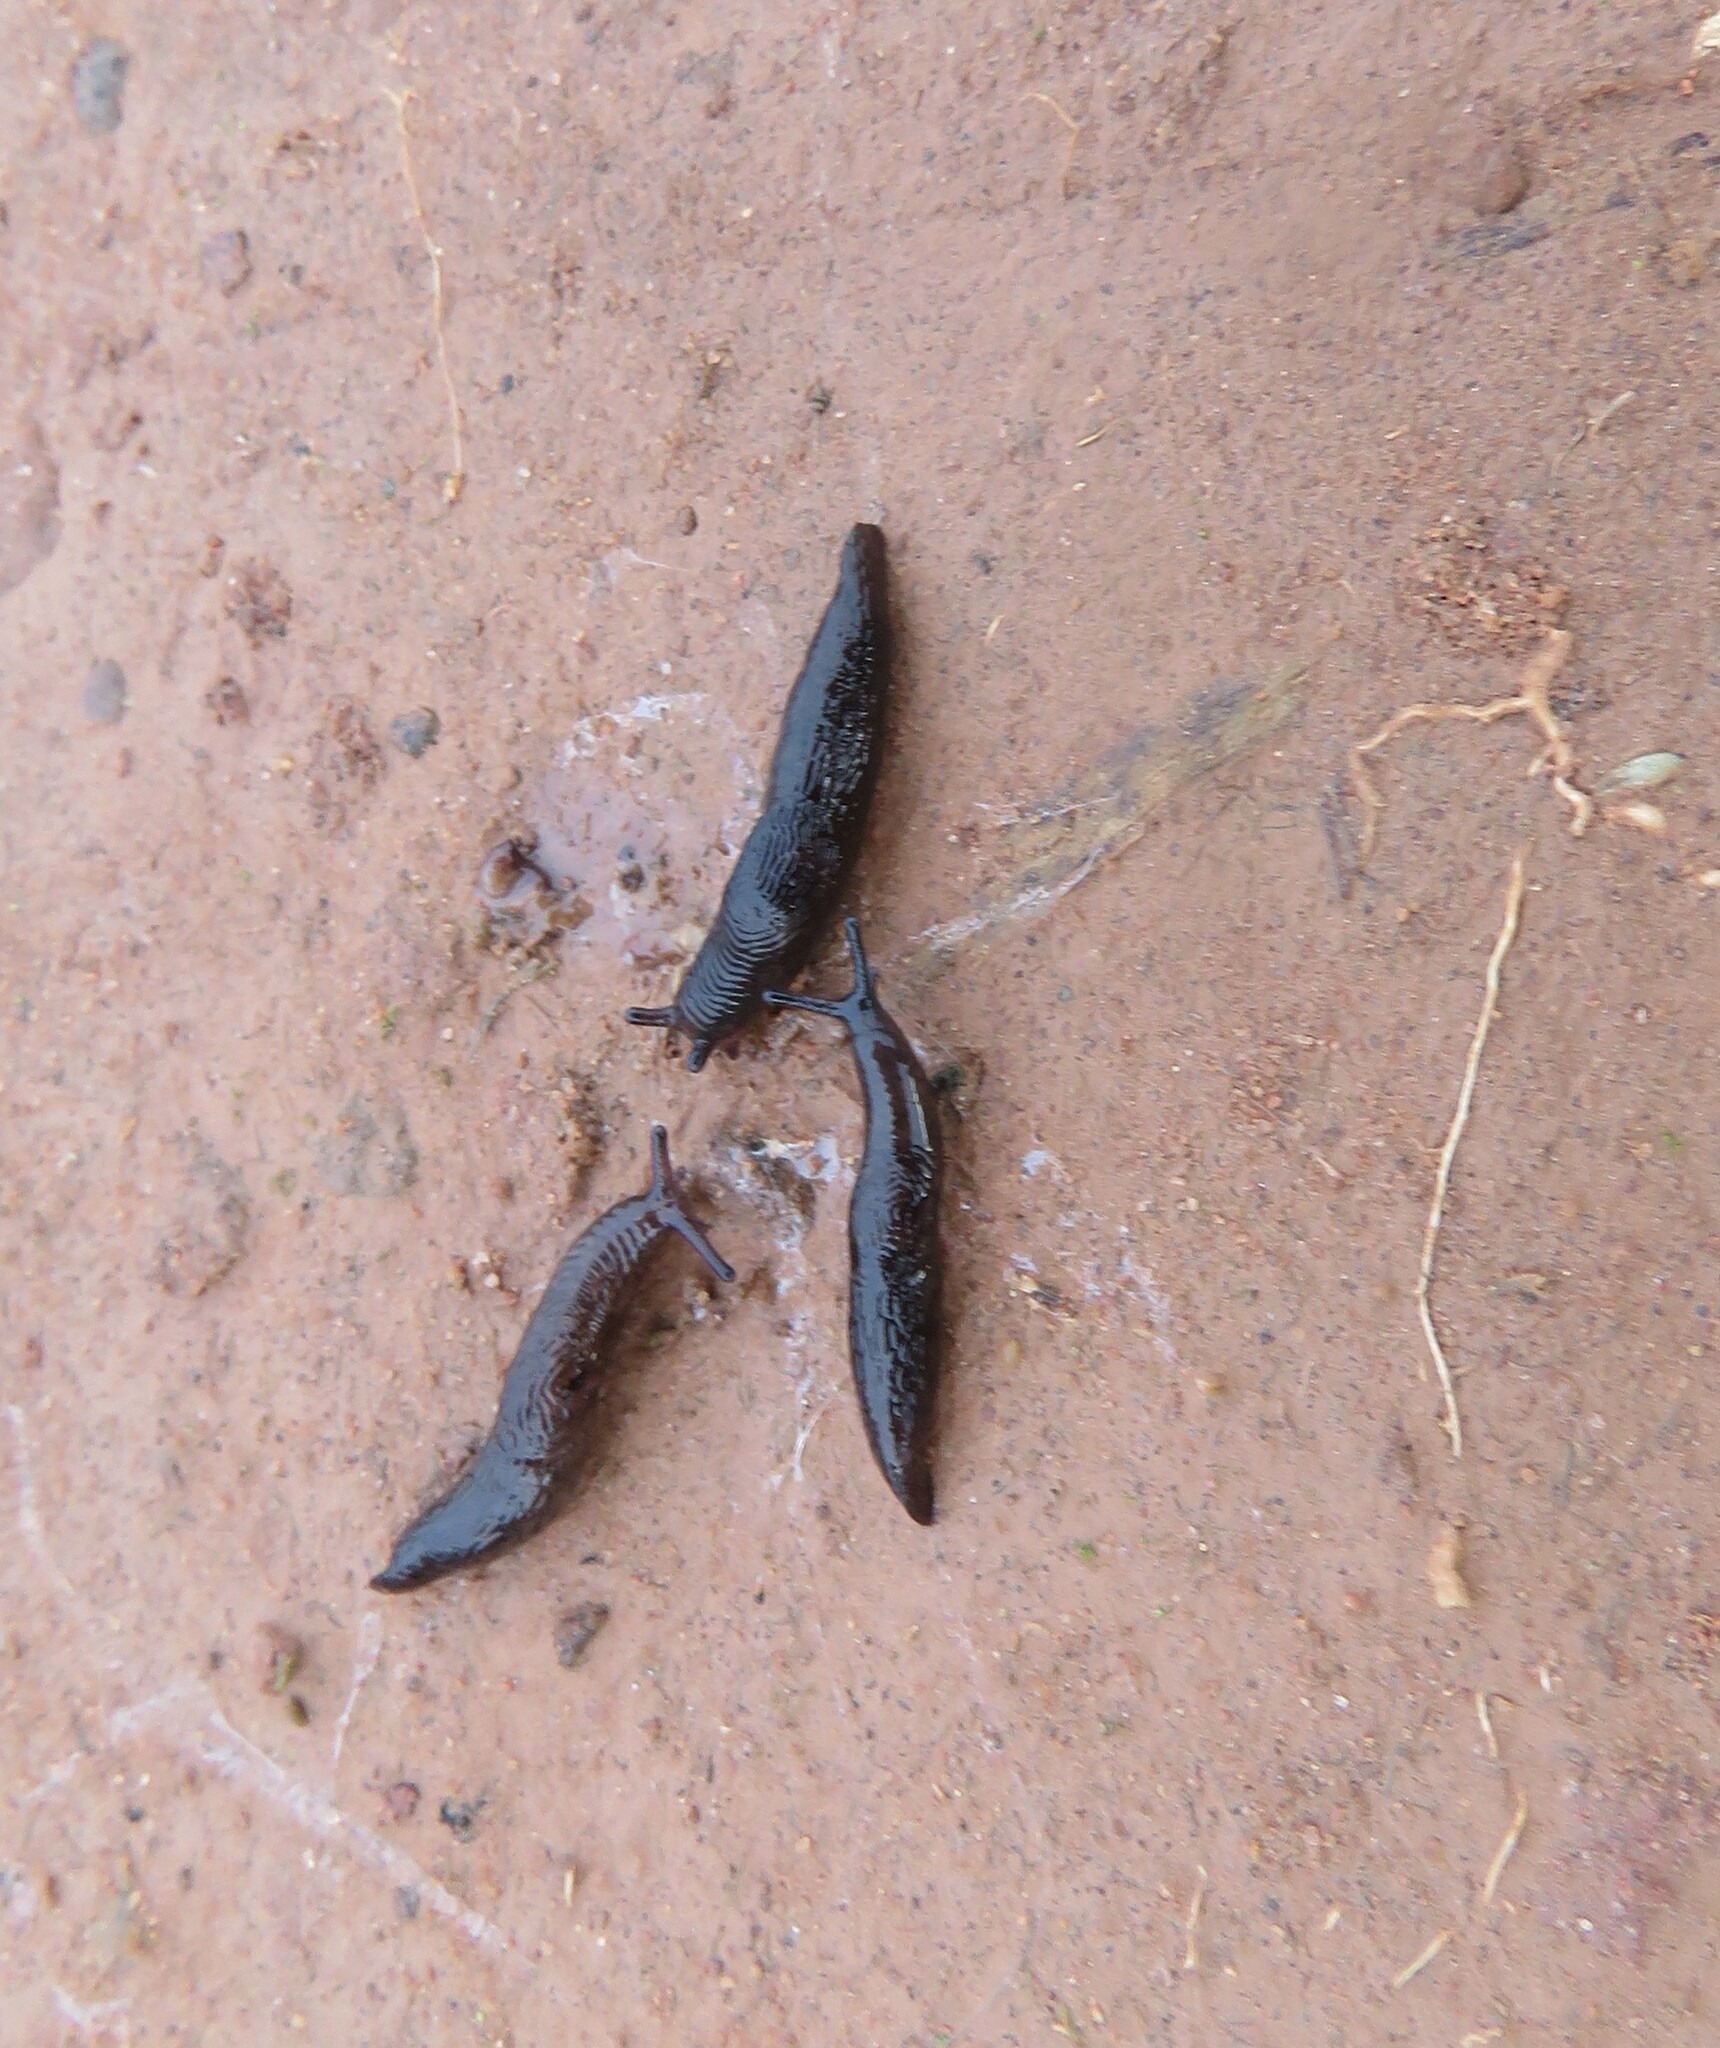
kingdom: Animalia
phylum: Mollusca
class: Gastropoda
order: Stylommatophora
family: Agriolimacidae
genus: Deroceras
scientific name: Deroceras laeve
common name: Marsh slug
